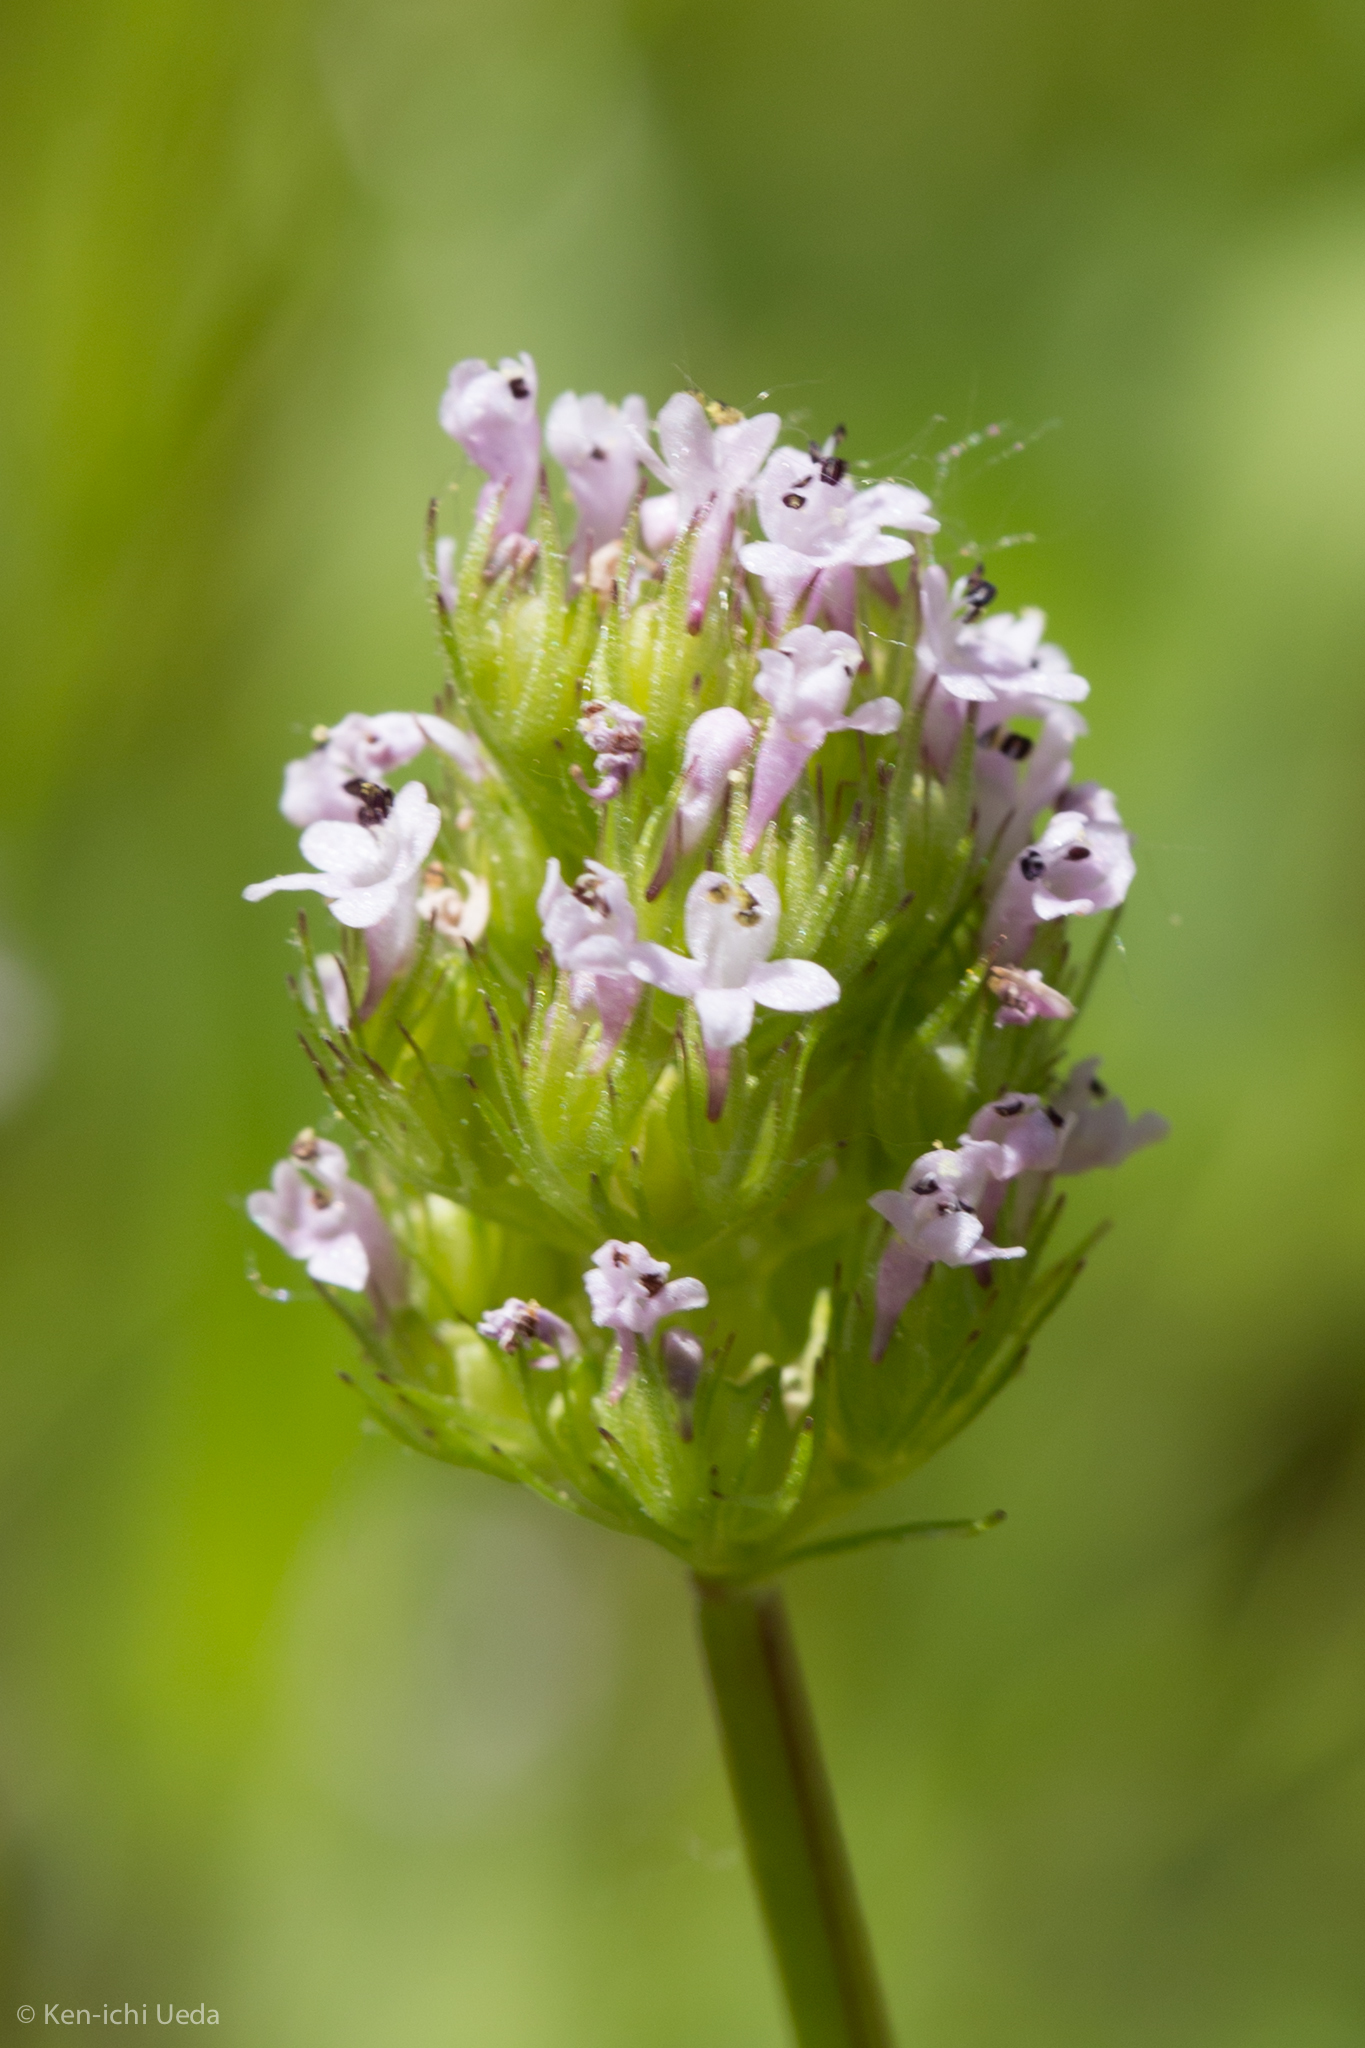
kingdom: Plantae
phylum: Tracheophyta
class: Magnoliopsida
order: Dipsacales
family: Caprifoliaceae
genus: Plectritis
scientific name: Plectritis macroptera
